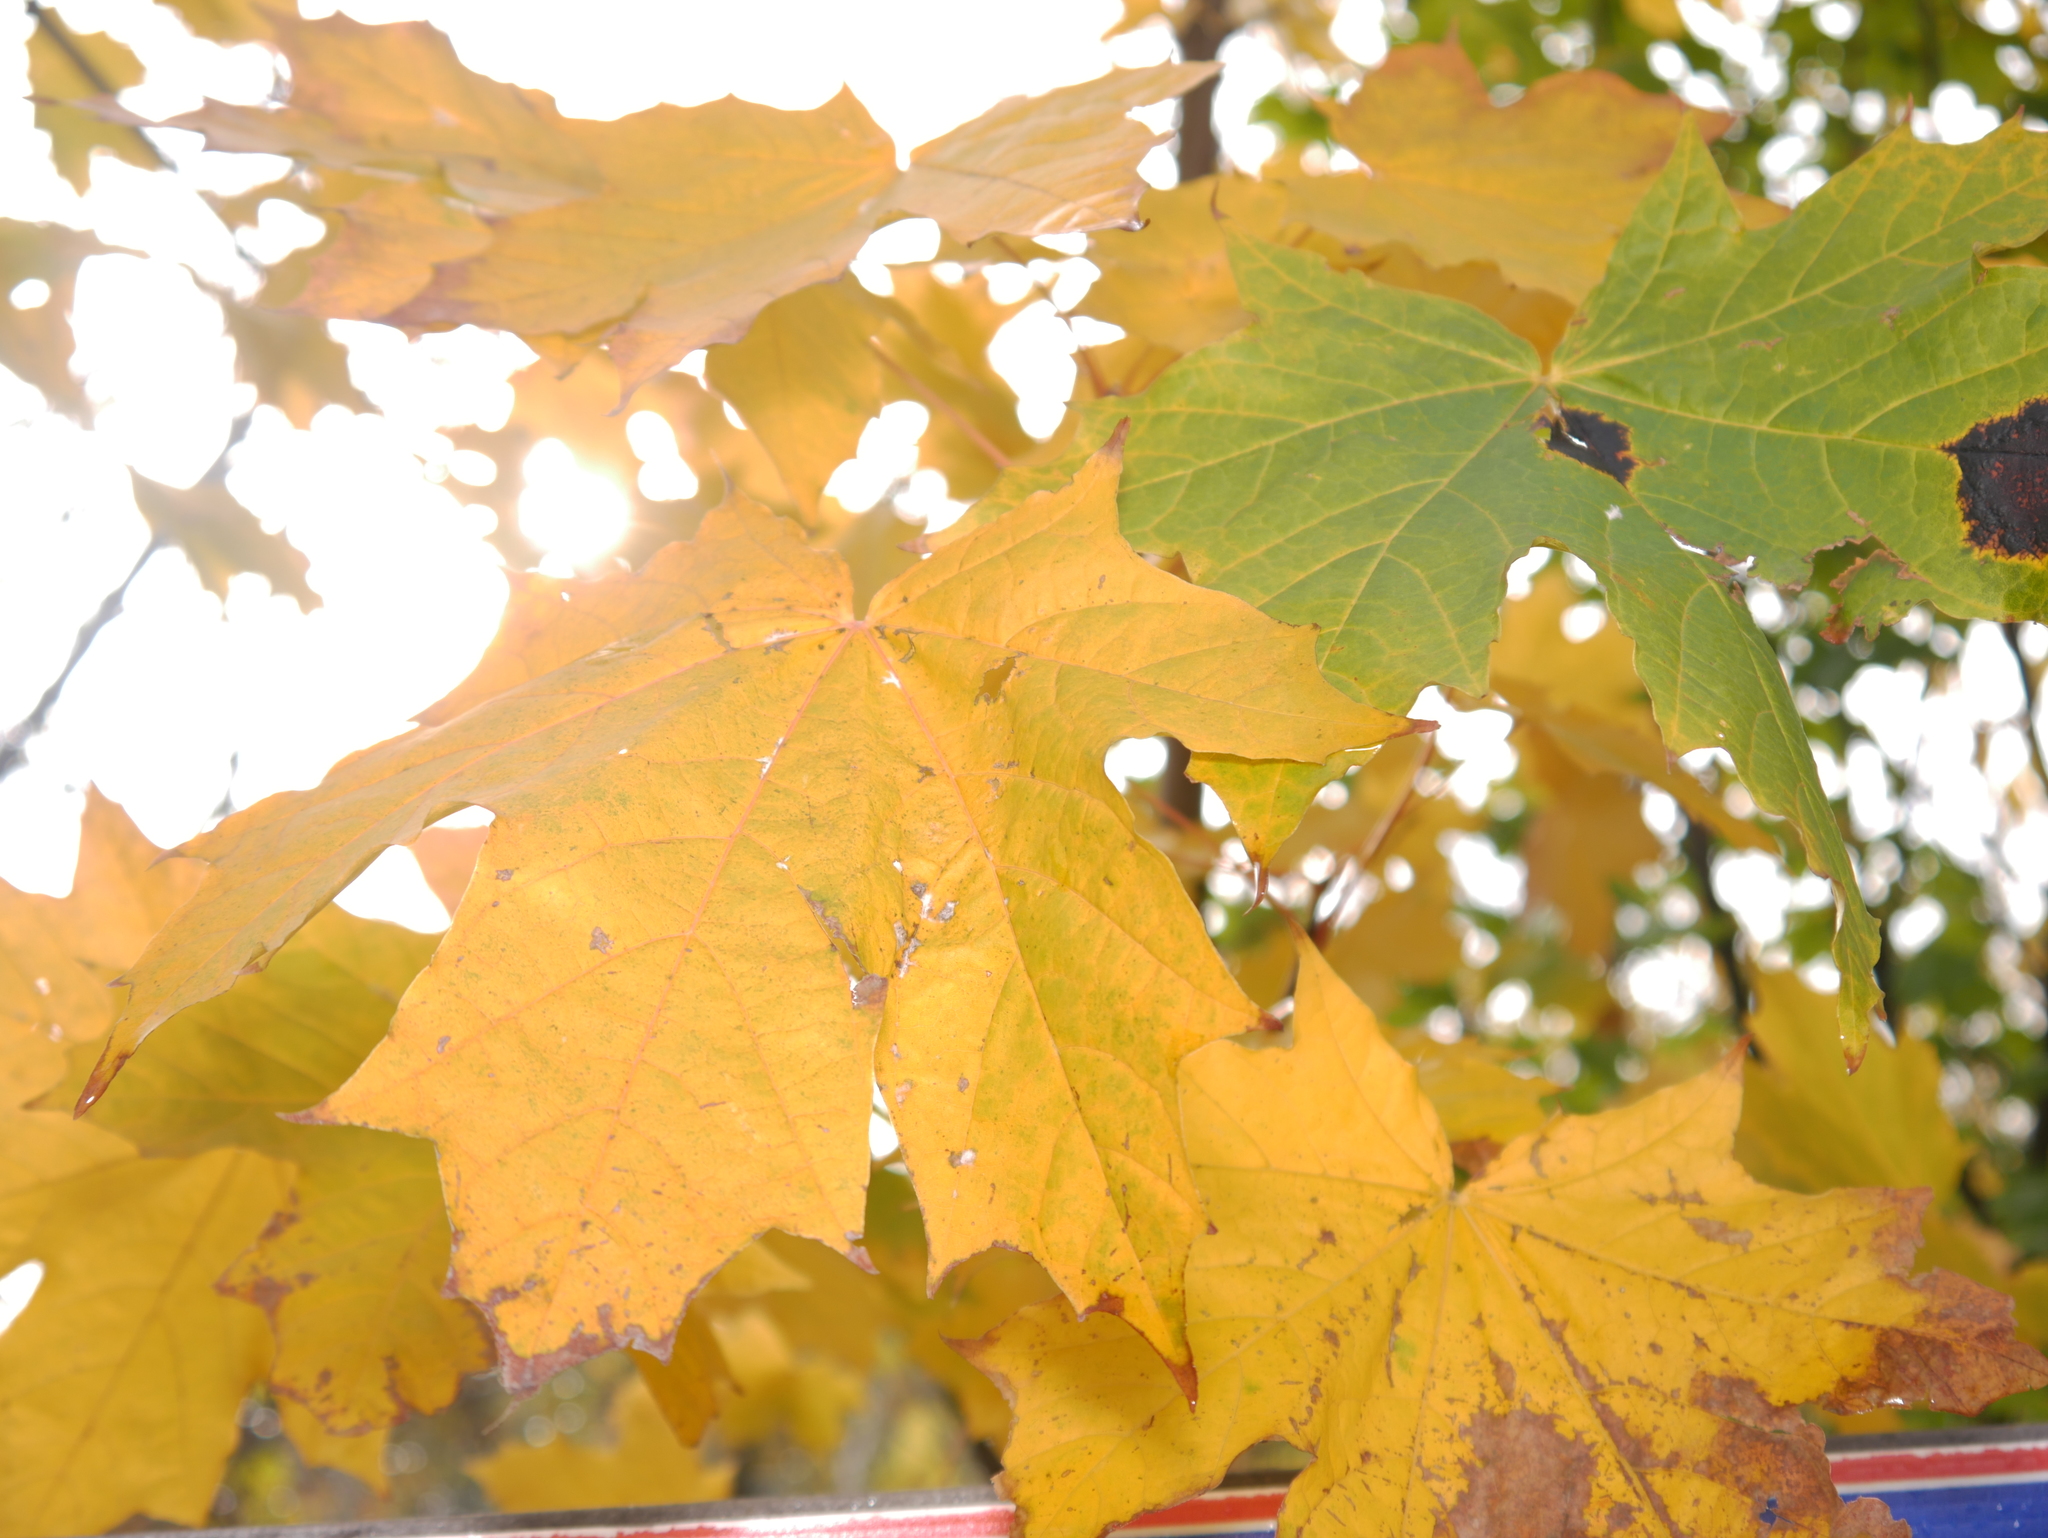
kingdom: Plantae
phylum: Tracheophyta
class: Magnoliopsida
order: Sapindales
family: Sapindaceae
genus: Acer
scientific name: Acer platanoides
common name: Norway maple
